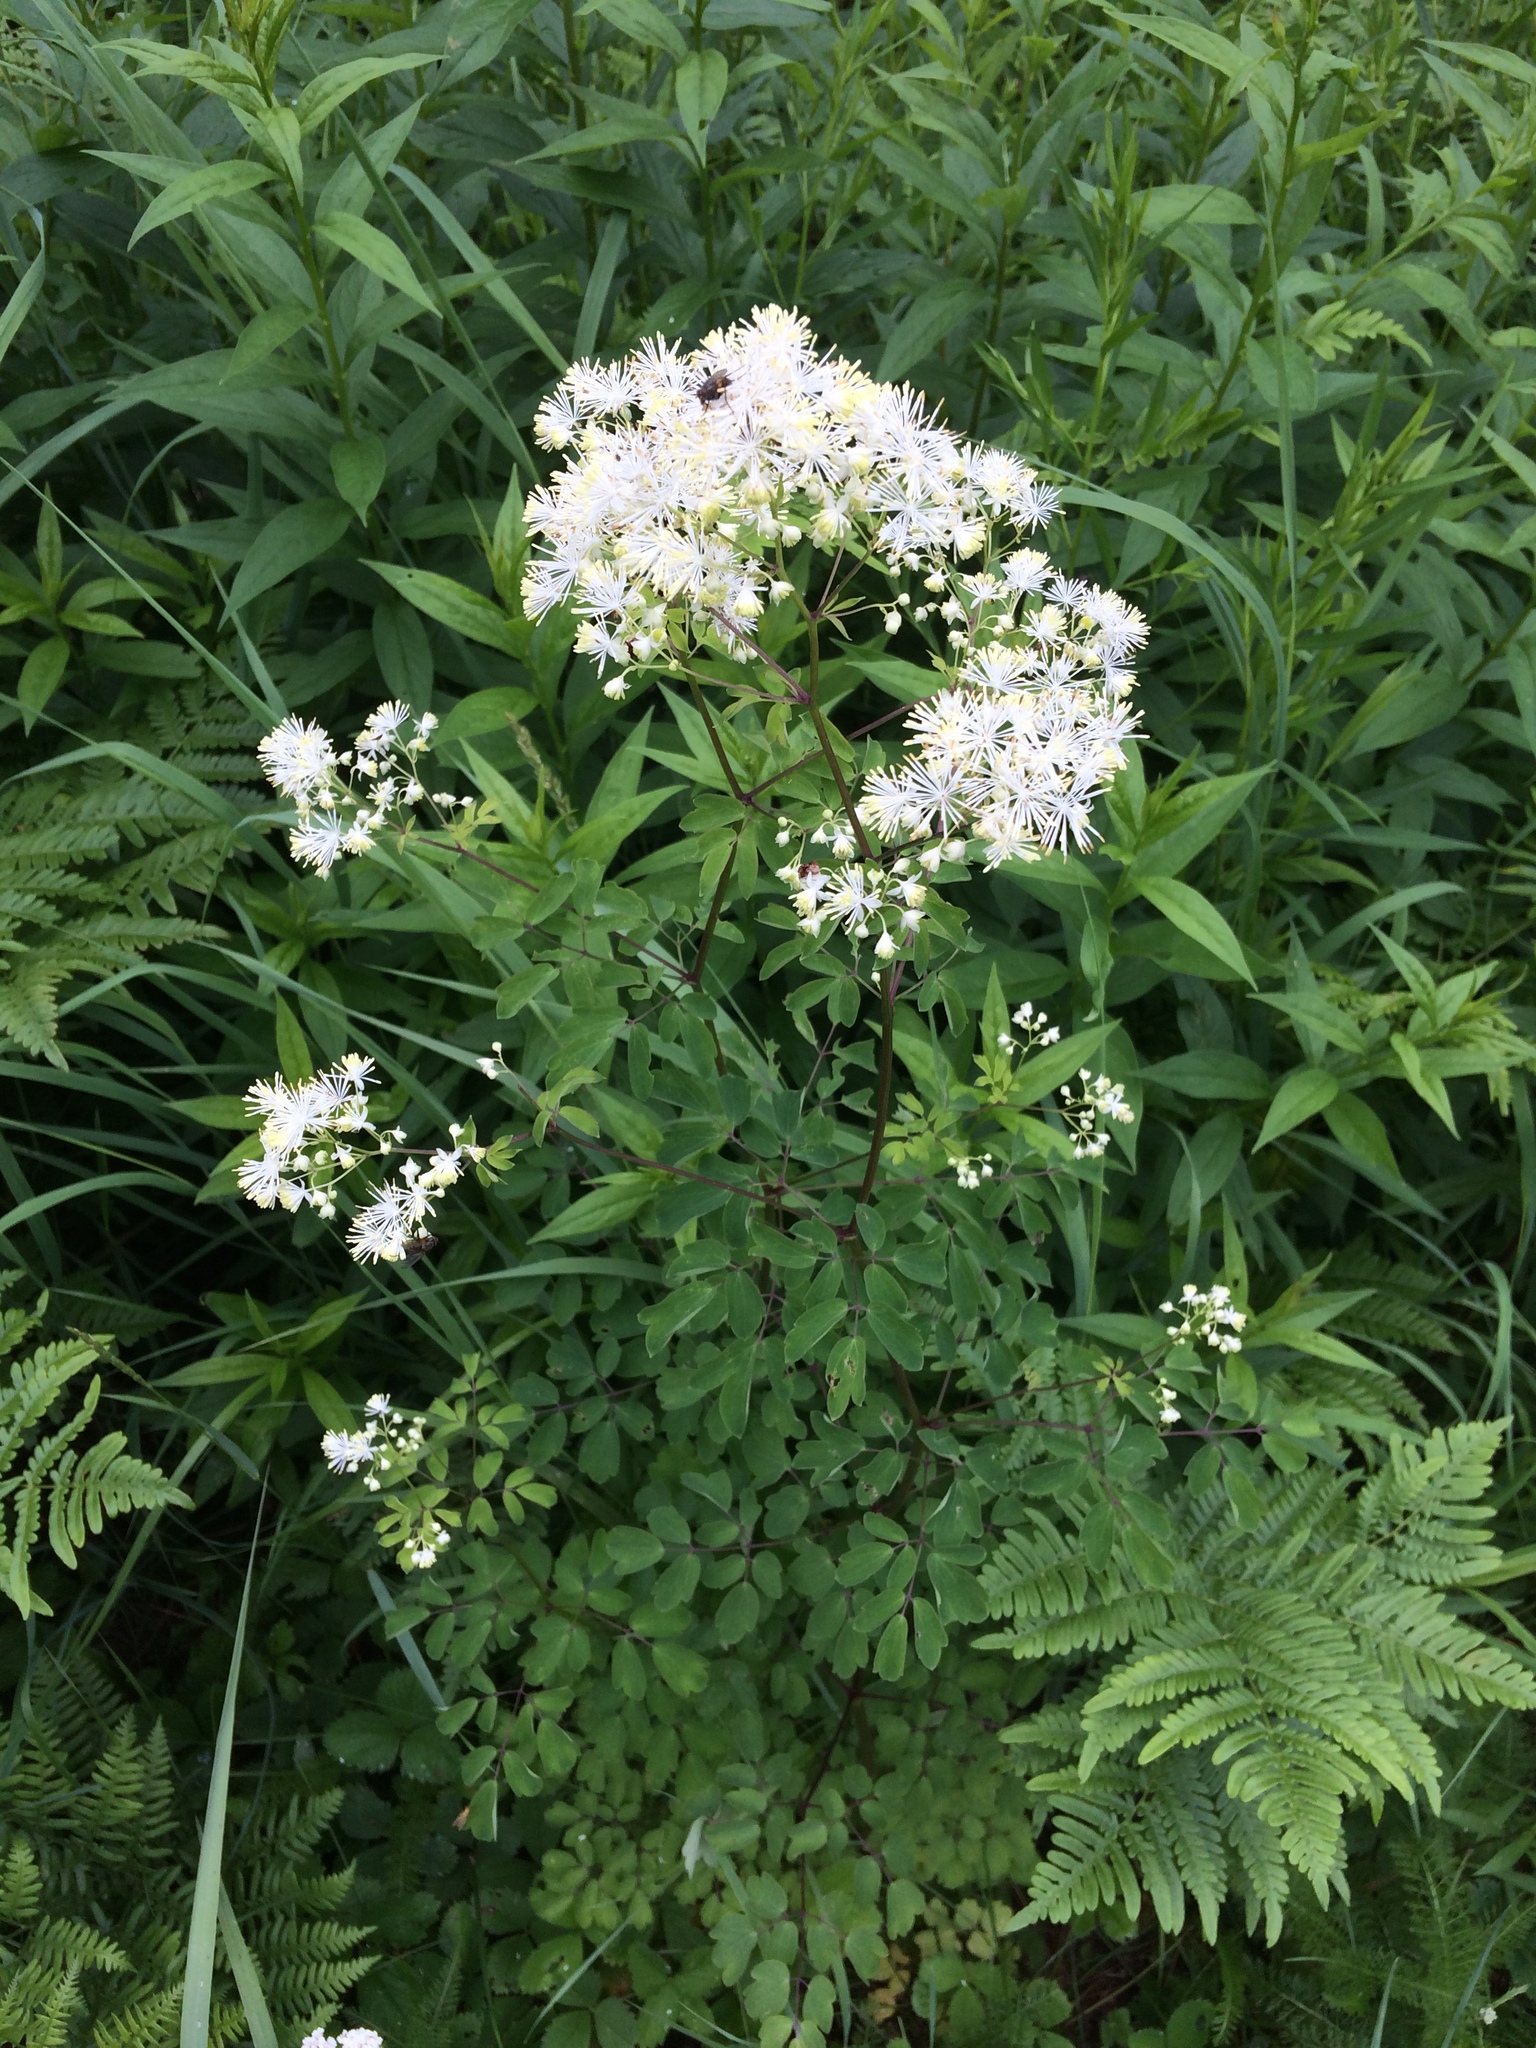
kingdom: Plantae
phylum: Tracheophyta
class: Magnoliopsida
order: Ranunculales
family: Ranunculaceae
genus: Thalictrum
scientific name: Thalictrum pubescens
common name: King-of-the-meadow
